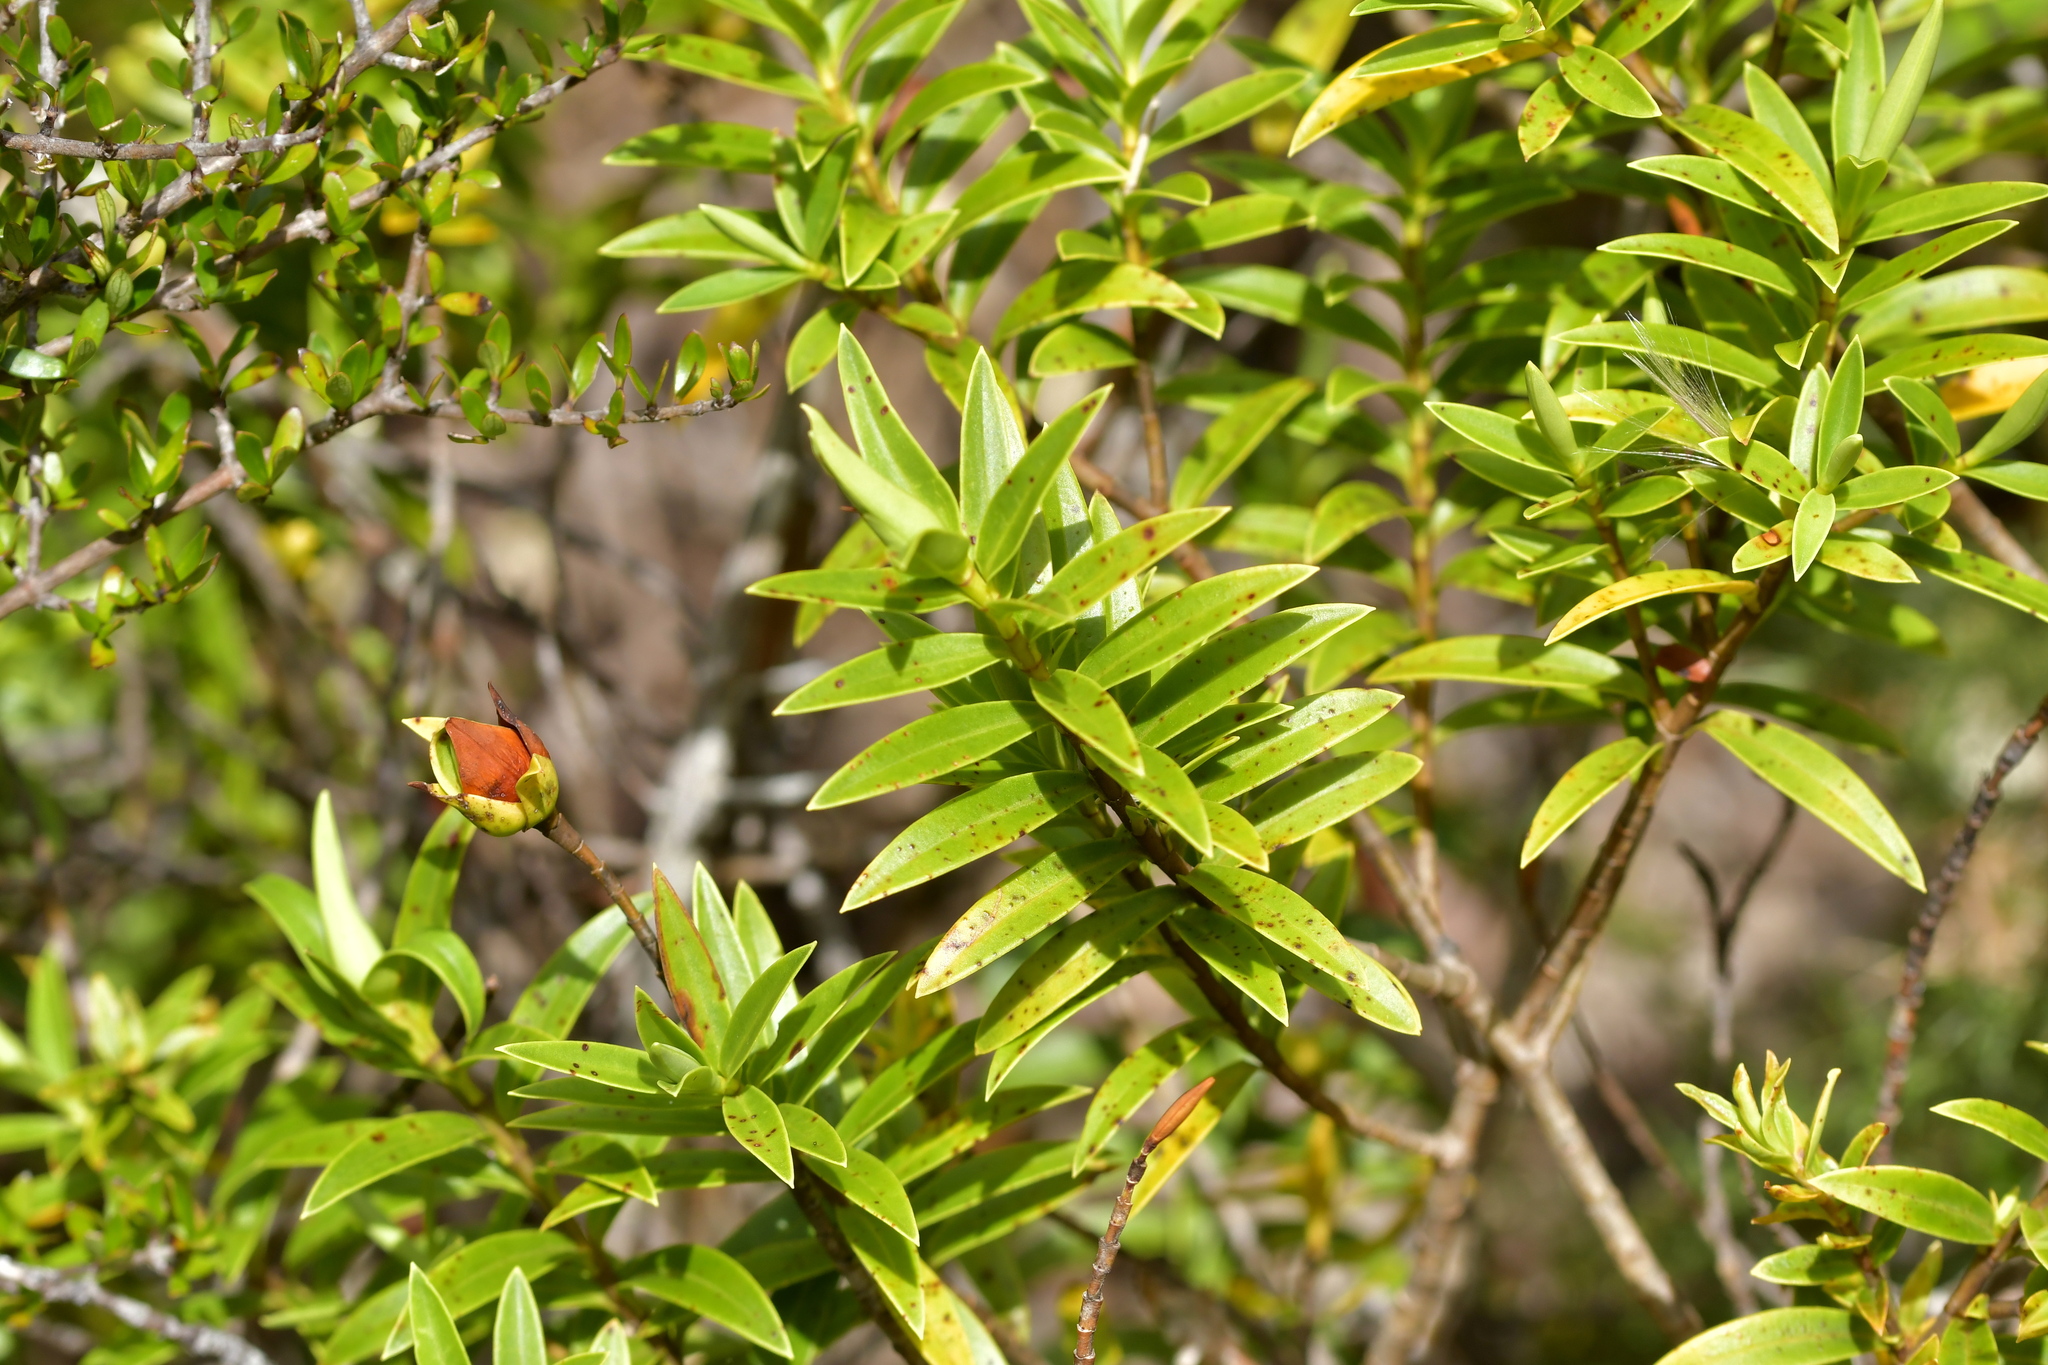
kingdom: Plantae
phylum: Tracheophyta
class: Magnoliopsida
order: Lamiales
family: Plantaginaceae
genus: Veronica
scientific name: Veronica subfulvida
